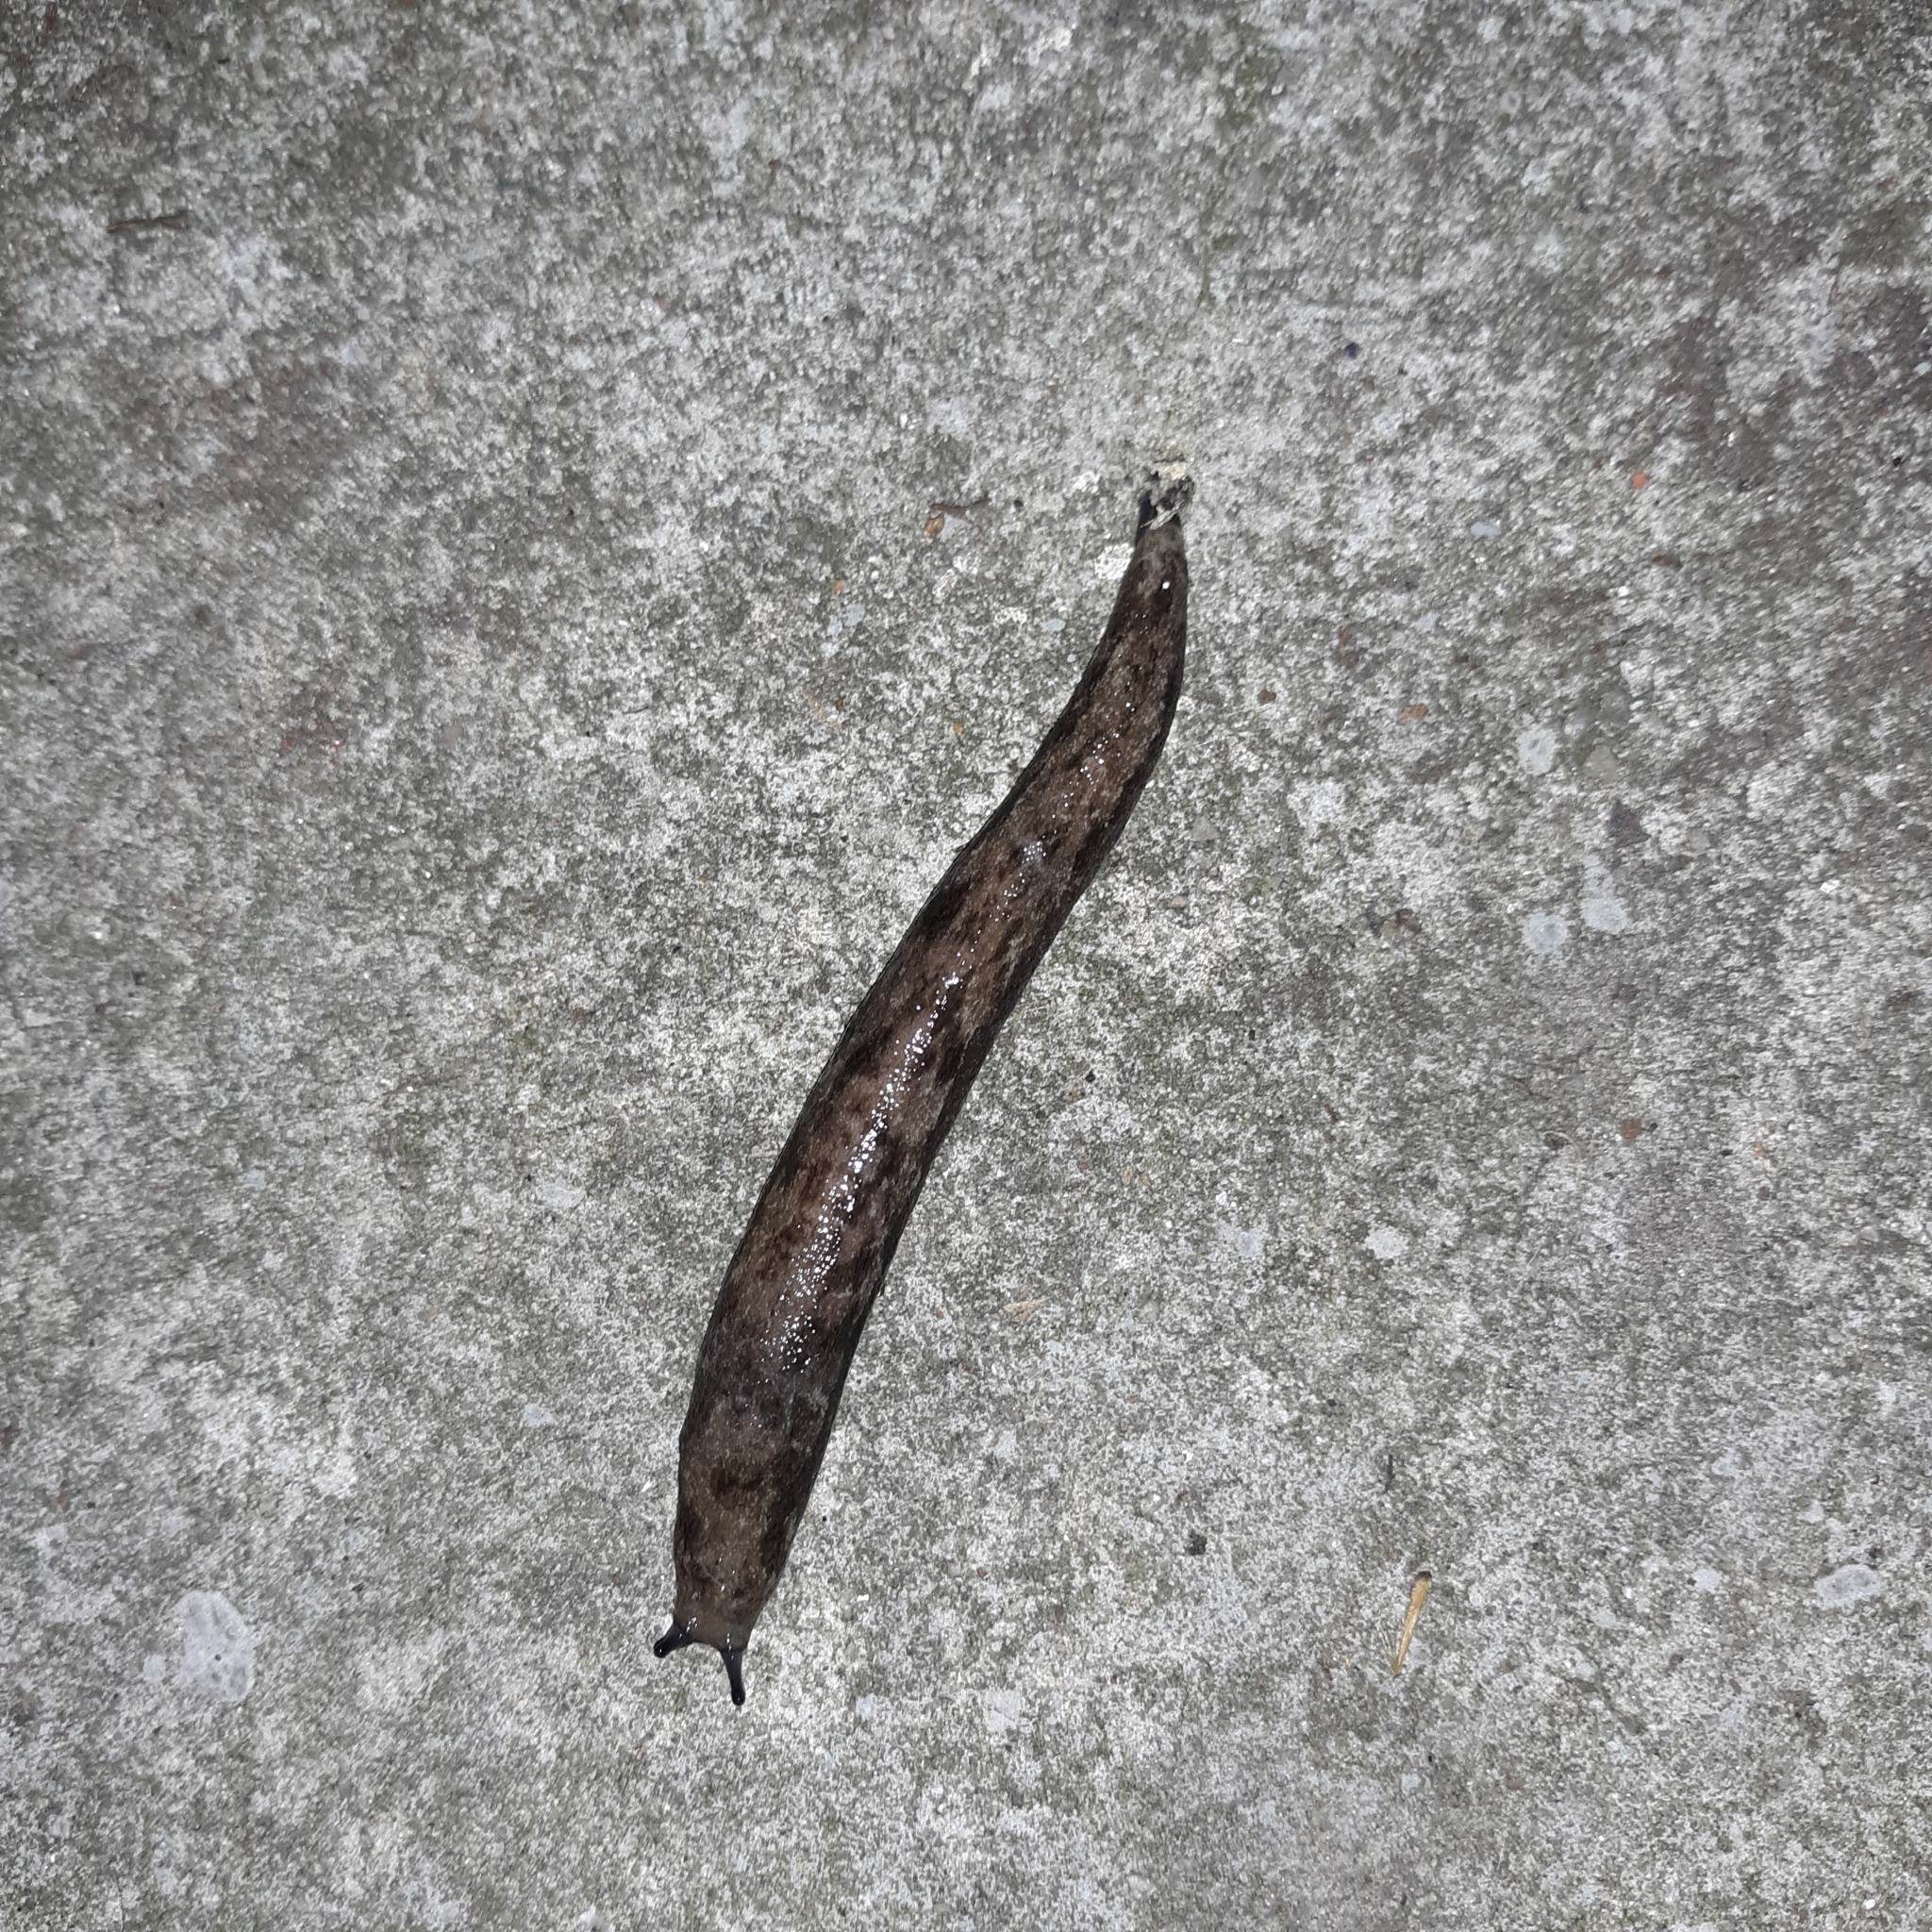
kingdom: Animalia
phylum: Mollusca
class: Gastropoda
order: Stylommatophora
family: Philomycidae
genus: Megapallifera
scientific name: Megapallifera mutabilis
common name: Changeable mantleslug
